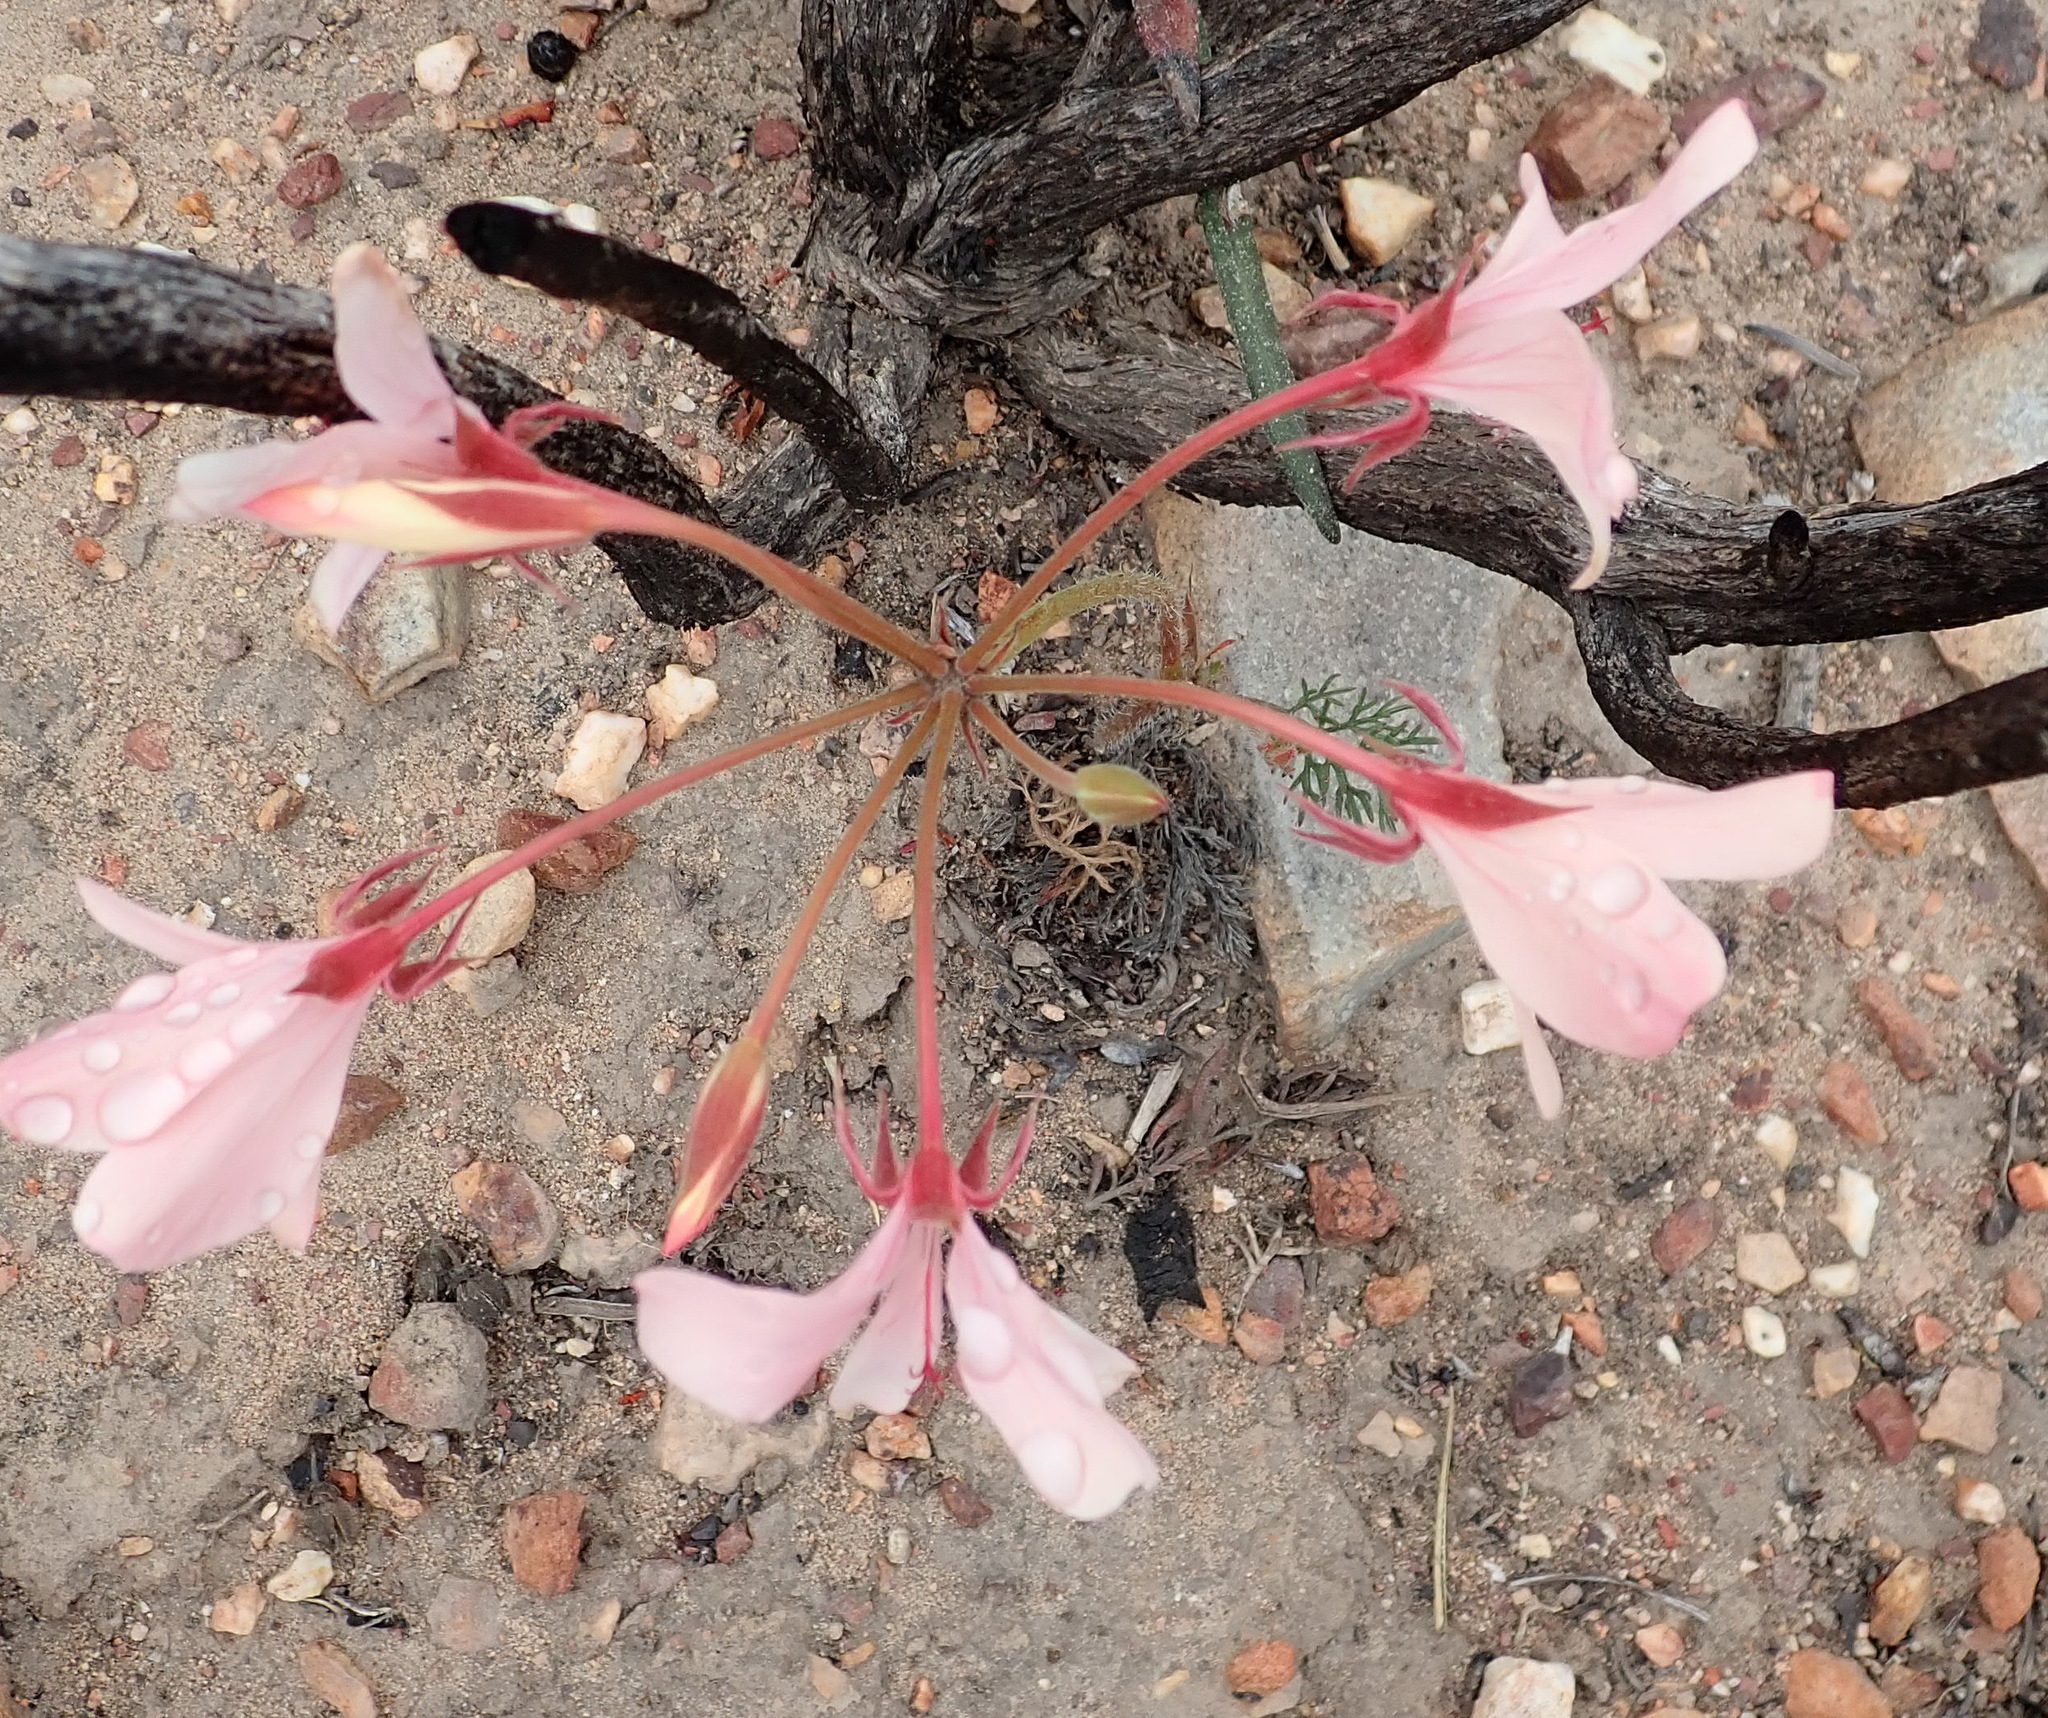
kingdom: Plantae
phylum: Tracheophyta
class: Magnoliopsida
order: Geraniales
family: Geraniaceae
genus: Pelargonium
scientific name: Pelargonium carneum
